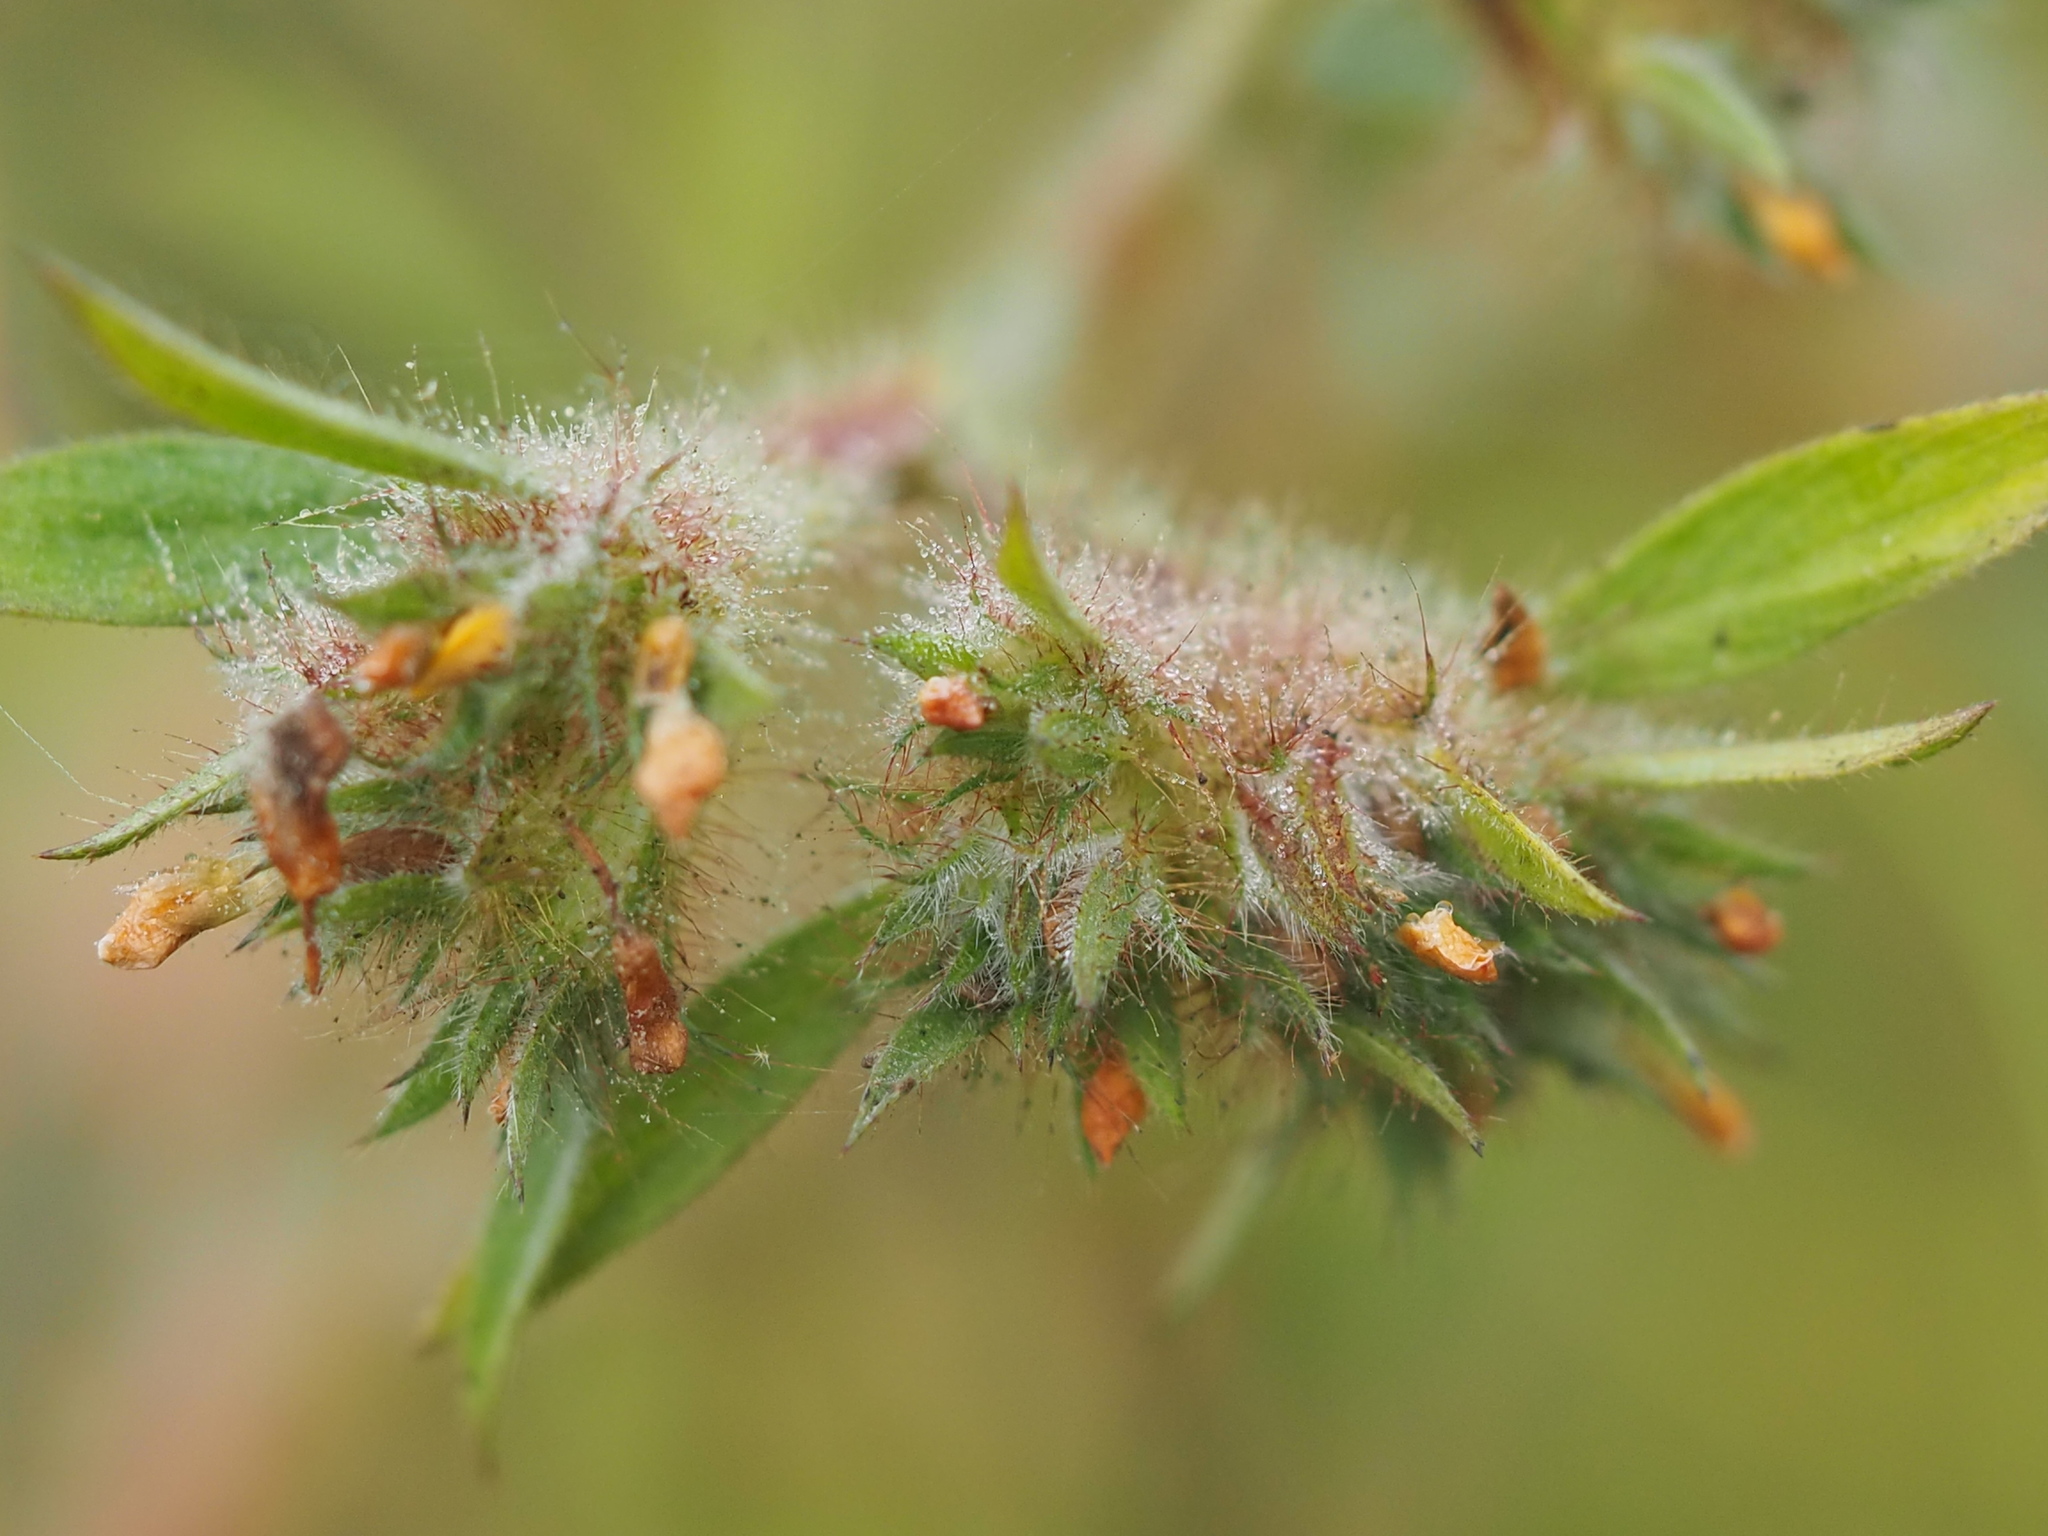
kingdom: Plantae
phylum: Tracheophyta
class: Magnoliopsida
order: Fabales
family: Fabaceae
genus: Stylosanthes
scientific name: Stylosanthes guianensis
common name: Pencil flower
